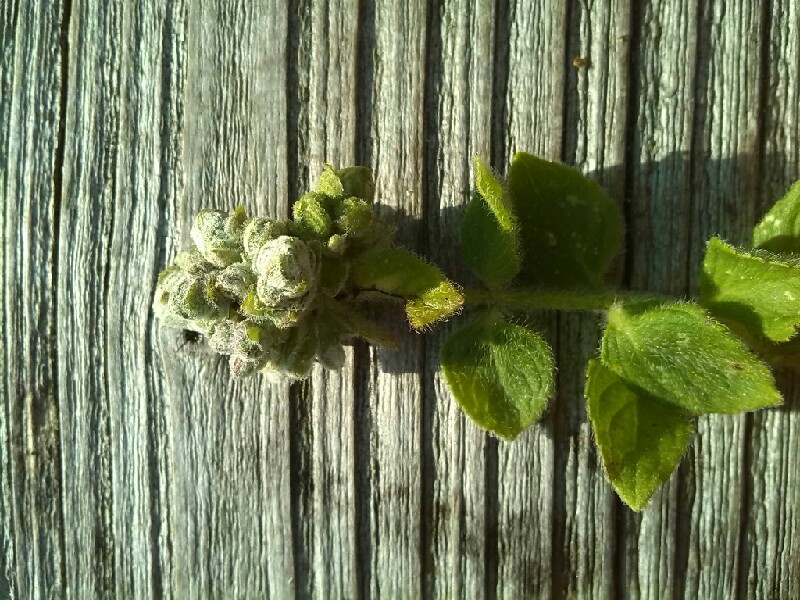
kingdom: Animalia
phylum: Arthropoda
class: Arachnida
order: Trombidiformes
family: Eriophyidae
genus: Aceria
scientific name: Aceria megacerus
